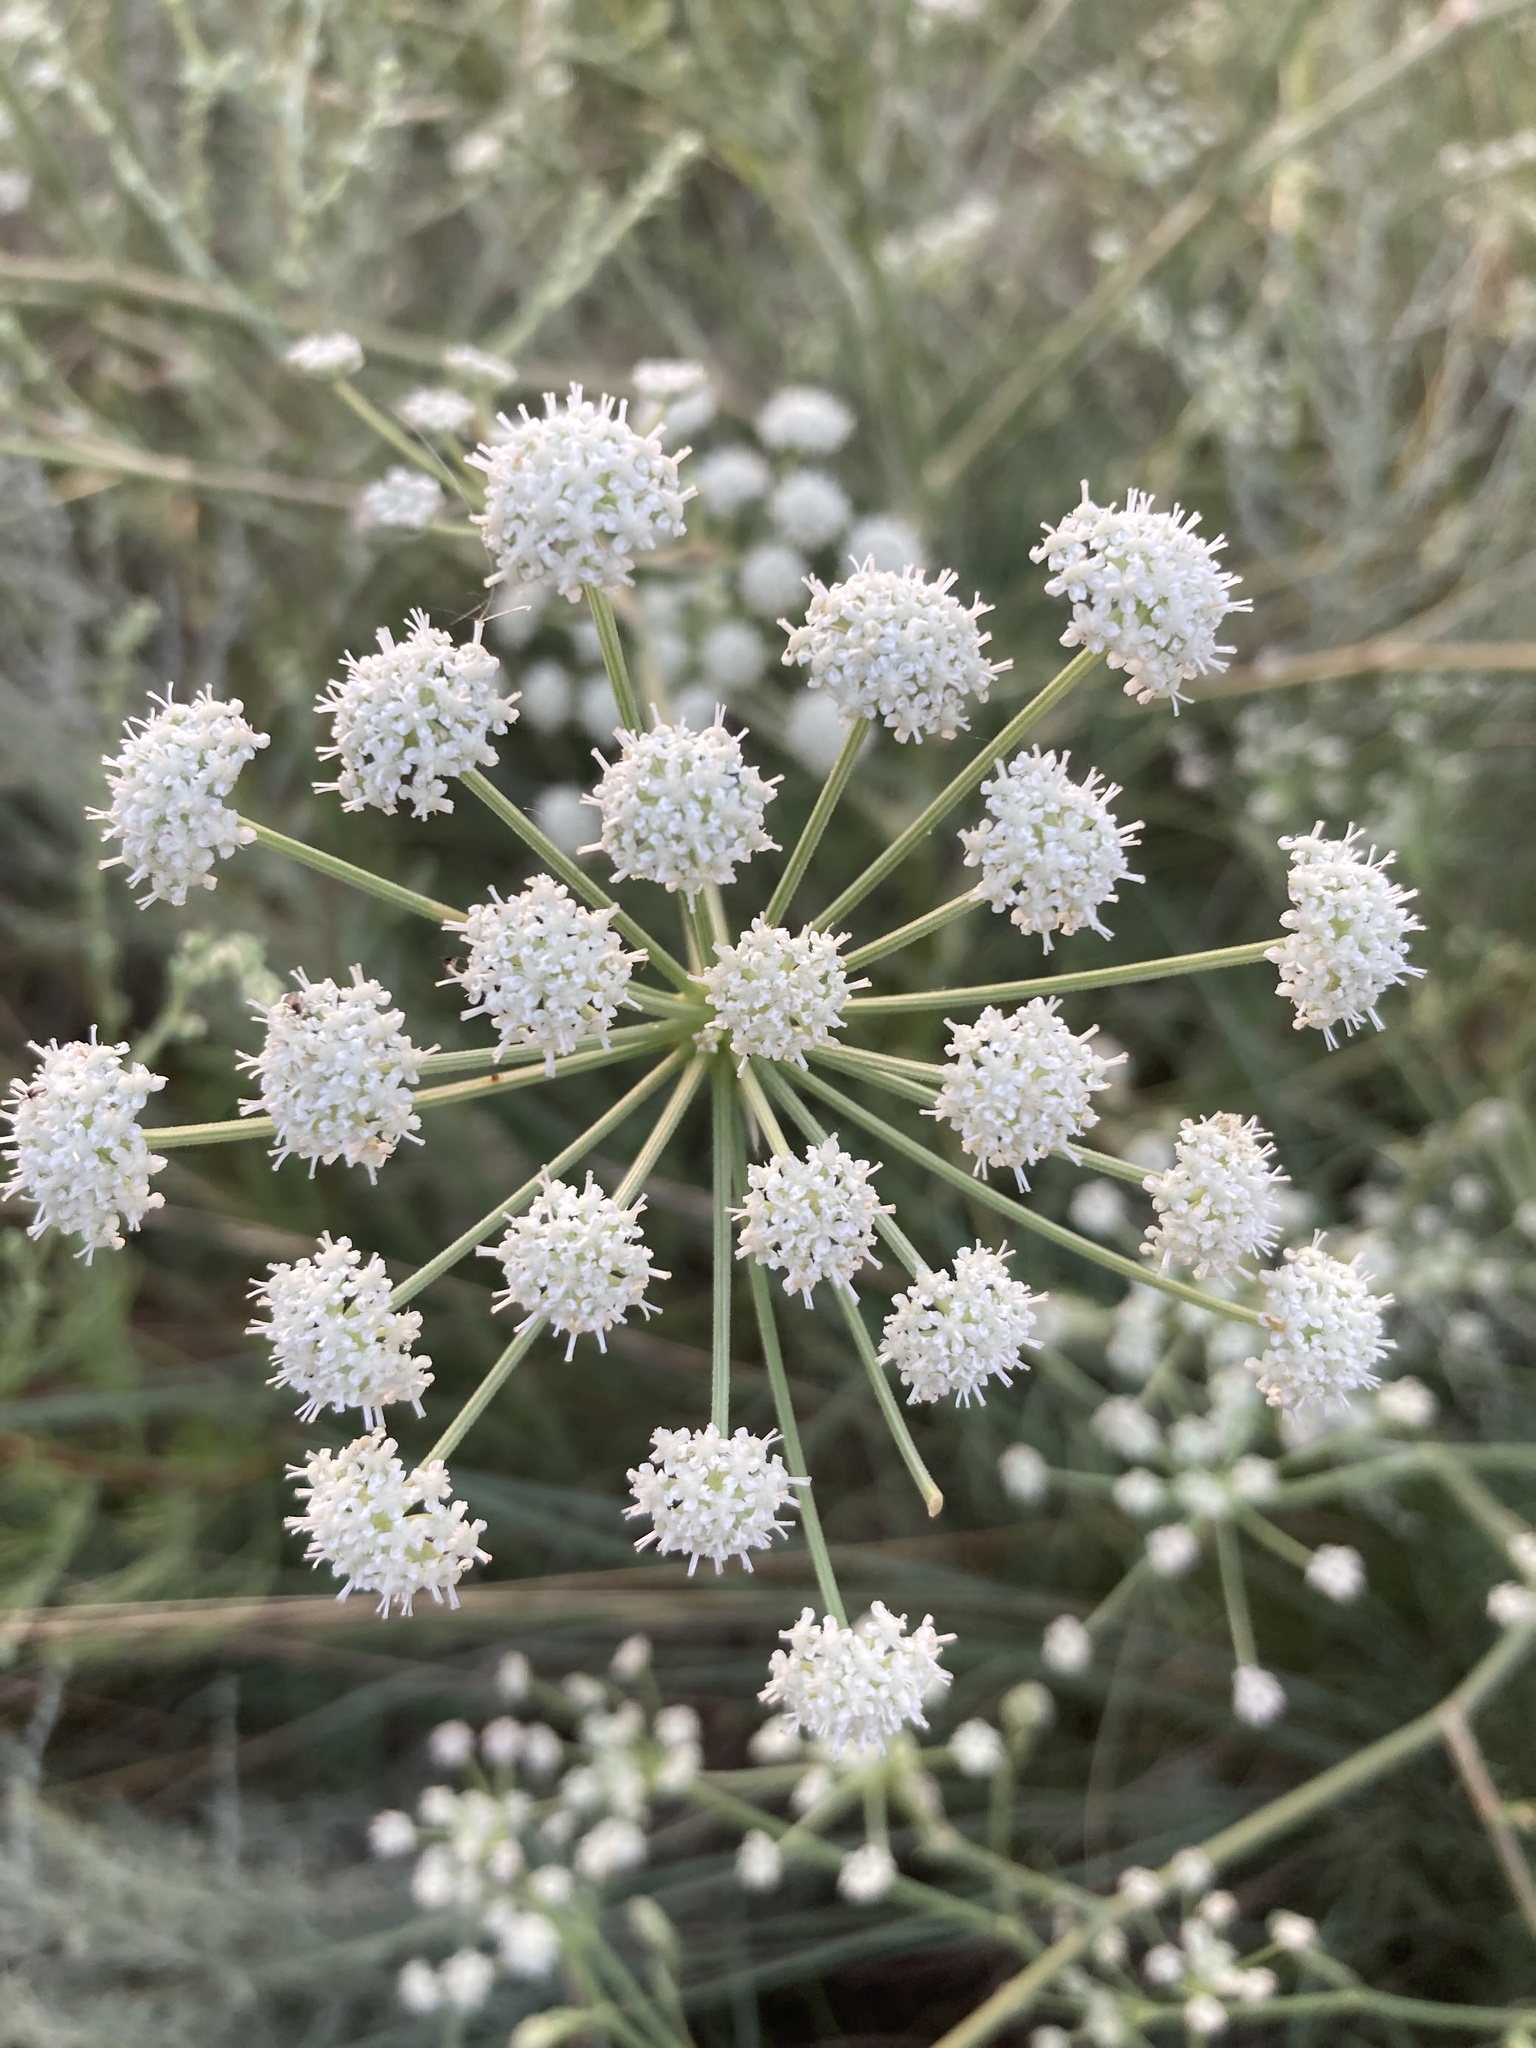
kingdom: Plantae
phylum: Tracheophyta
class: Magnoliopsida
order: Apiales
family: Apiaceae
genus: Seseli
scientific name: Seseli arenarium
